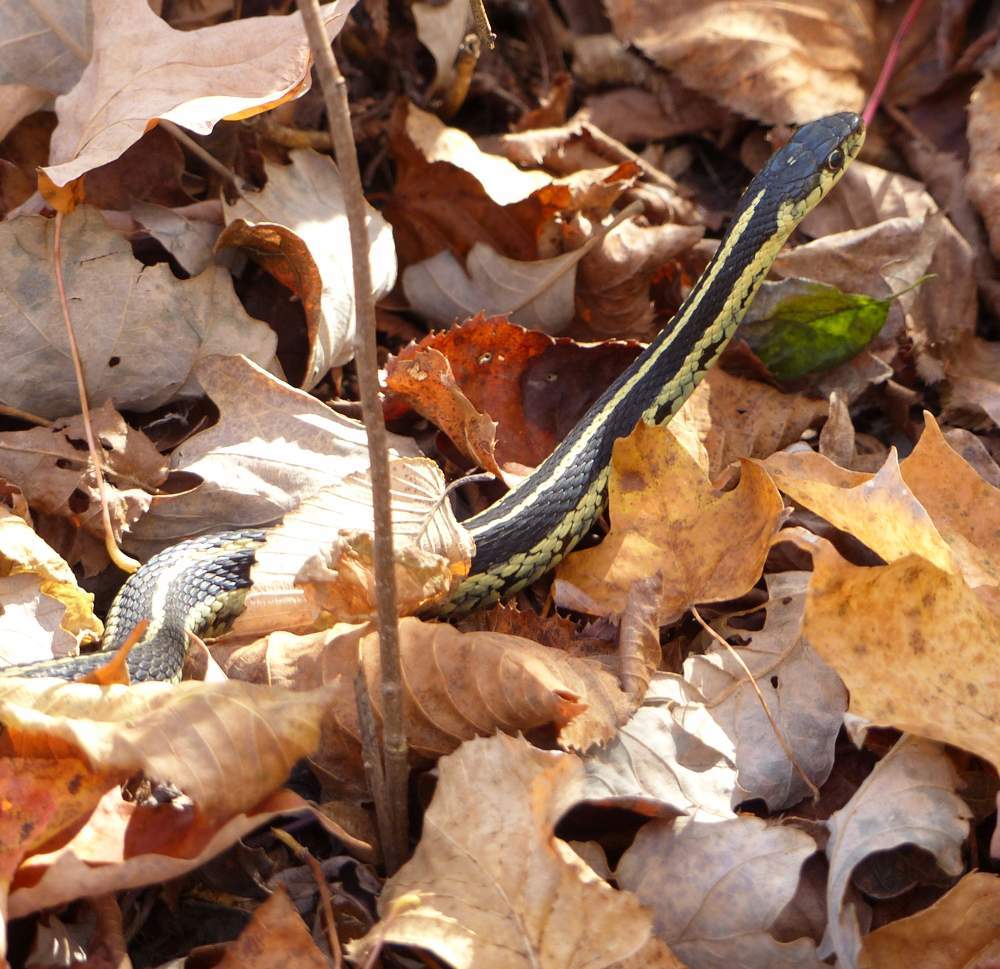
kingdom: Animalia
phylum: Chordata
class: Squamata
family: Colubridae
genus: Thamnophis
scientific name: Thamnophis sirtalis
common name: Common garter snake
